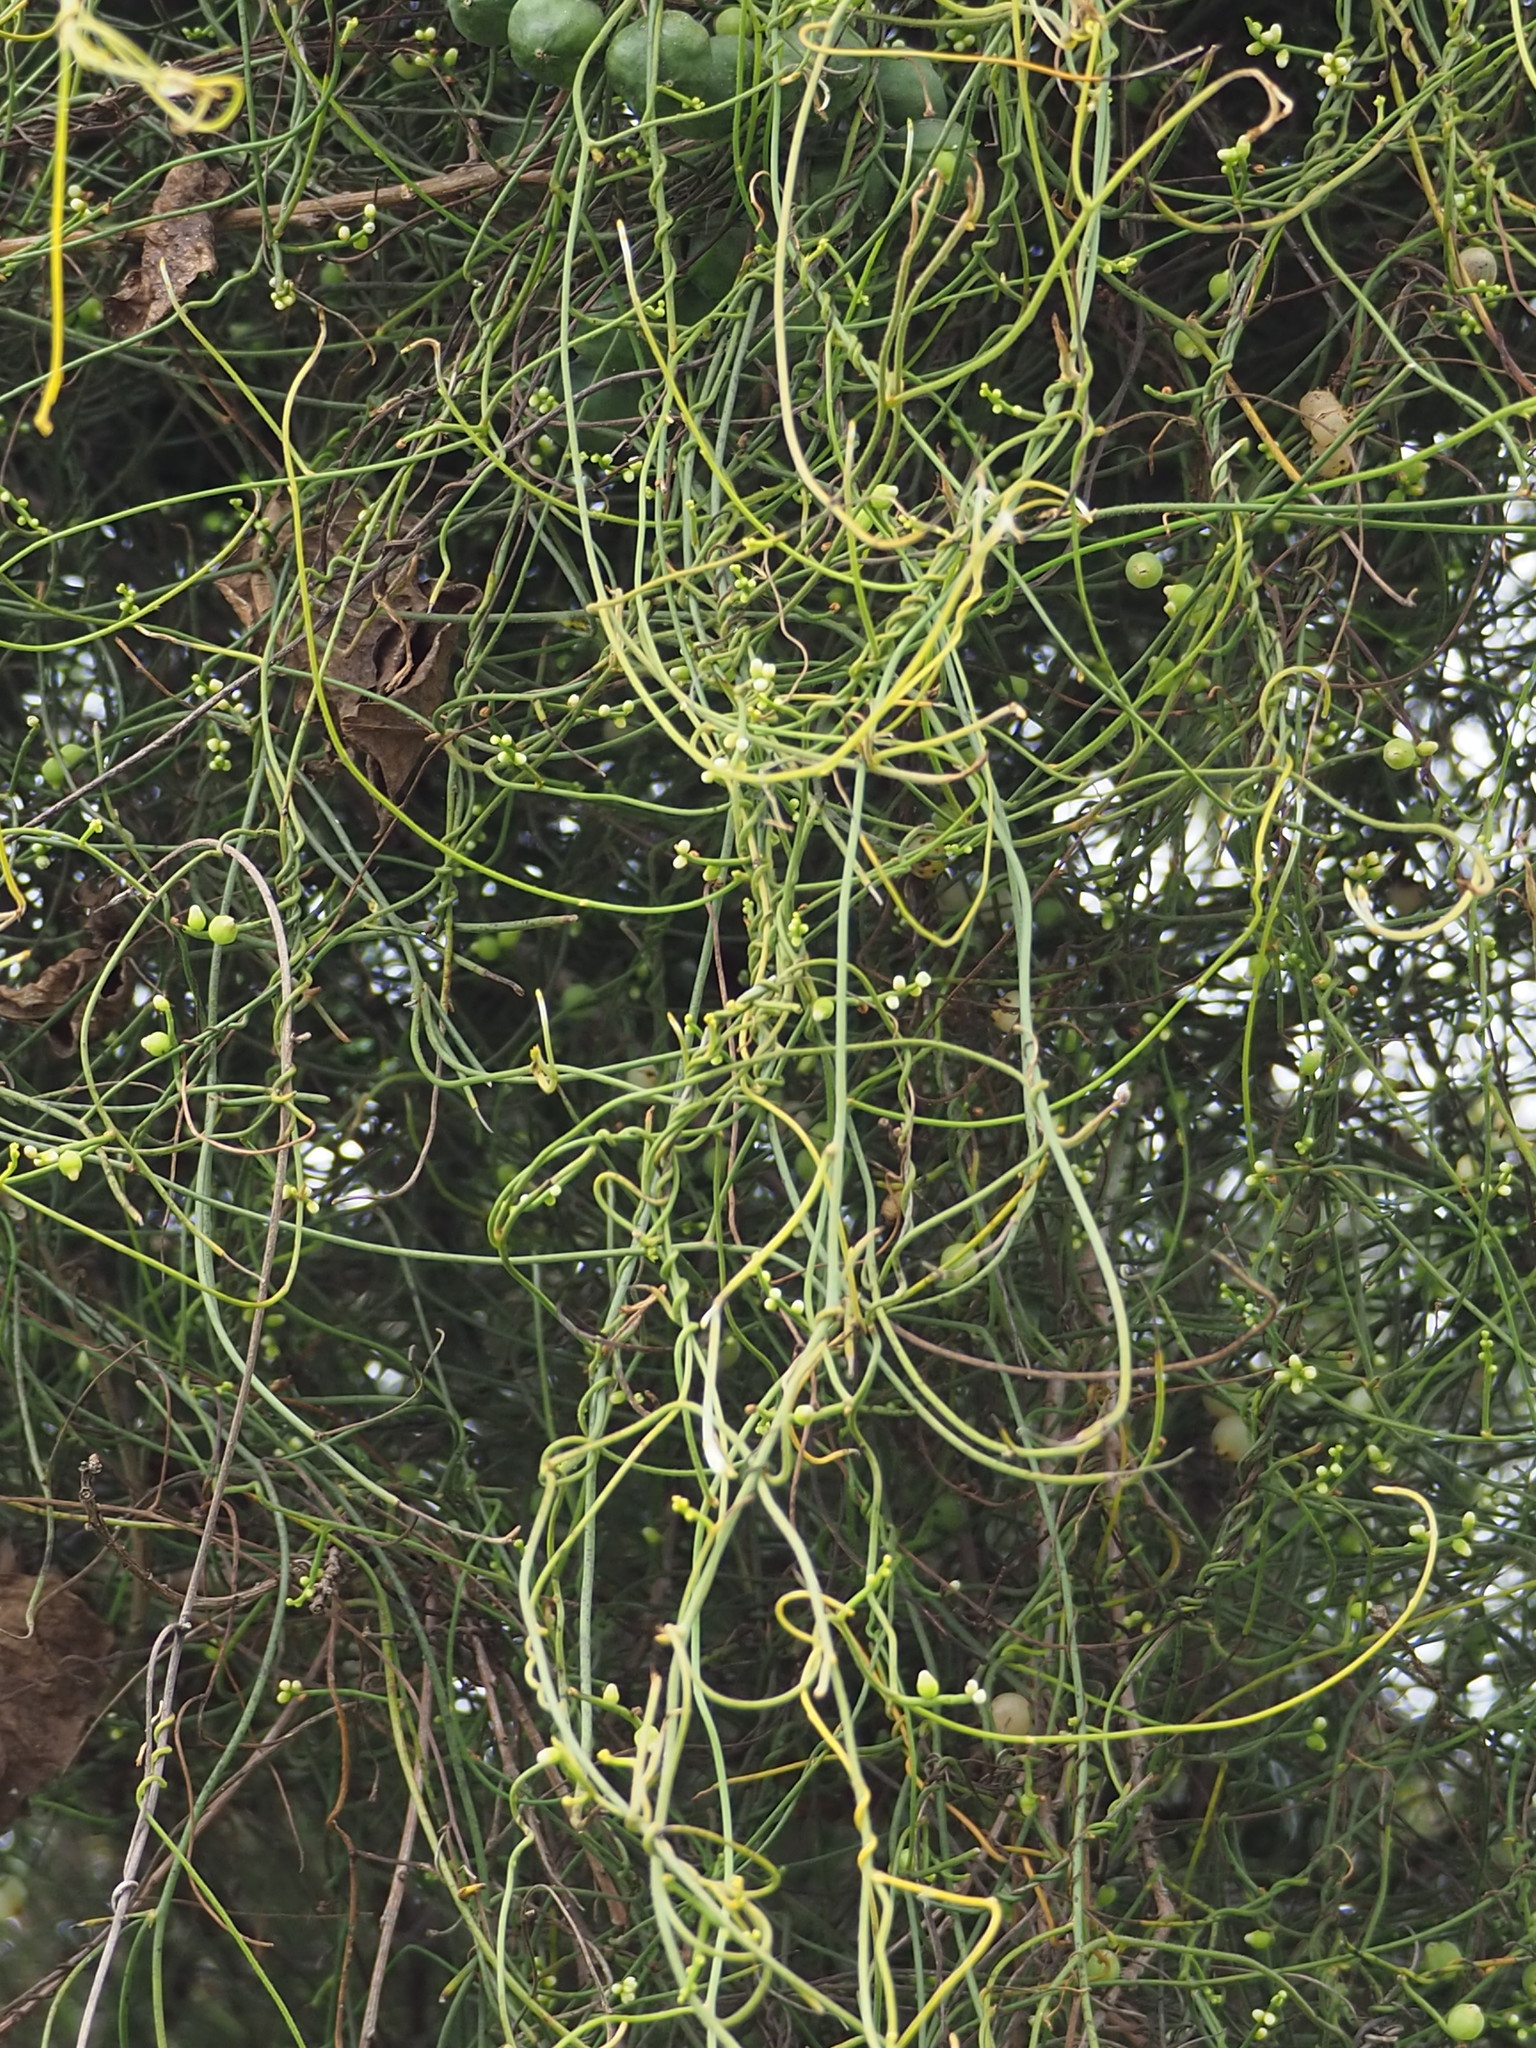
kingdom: Plantae
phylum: Tracheophyta
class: Magnoliopsida
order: Laurales
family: Lauraceae
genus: Cassytha
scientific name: Cassytha filiformis
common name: Dodder-laurel
